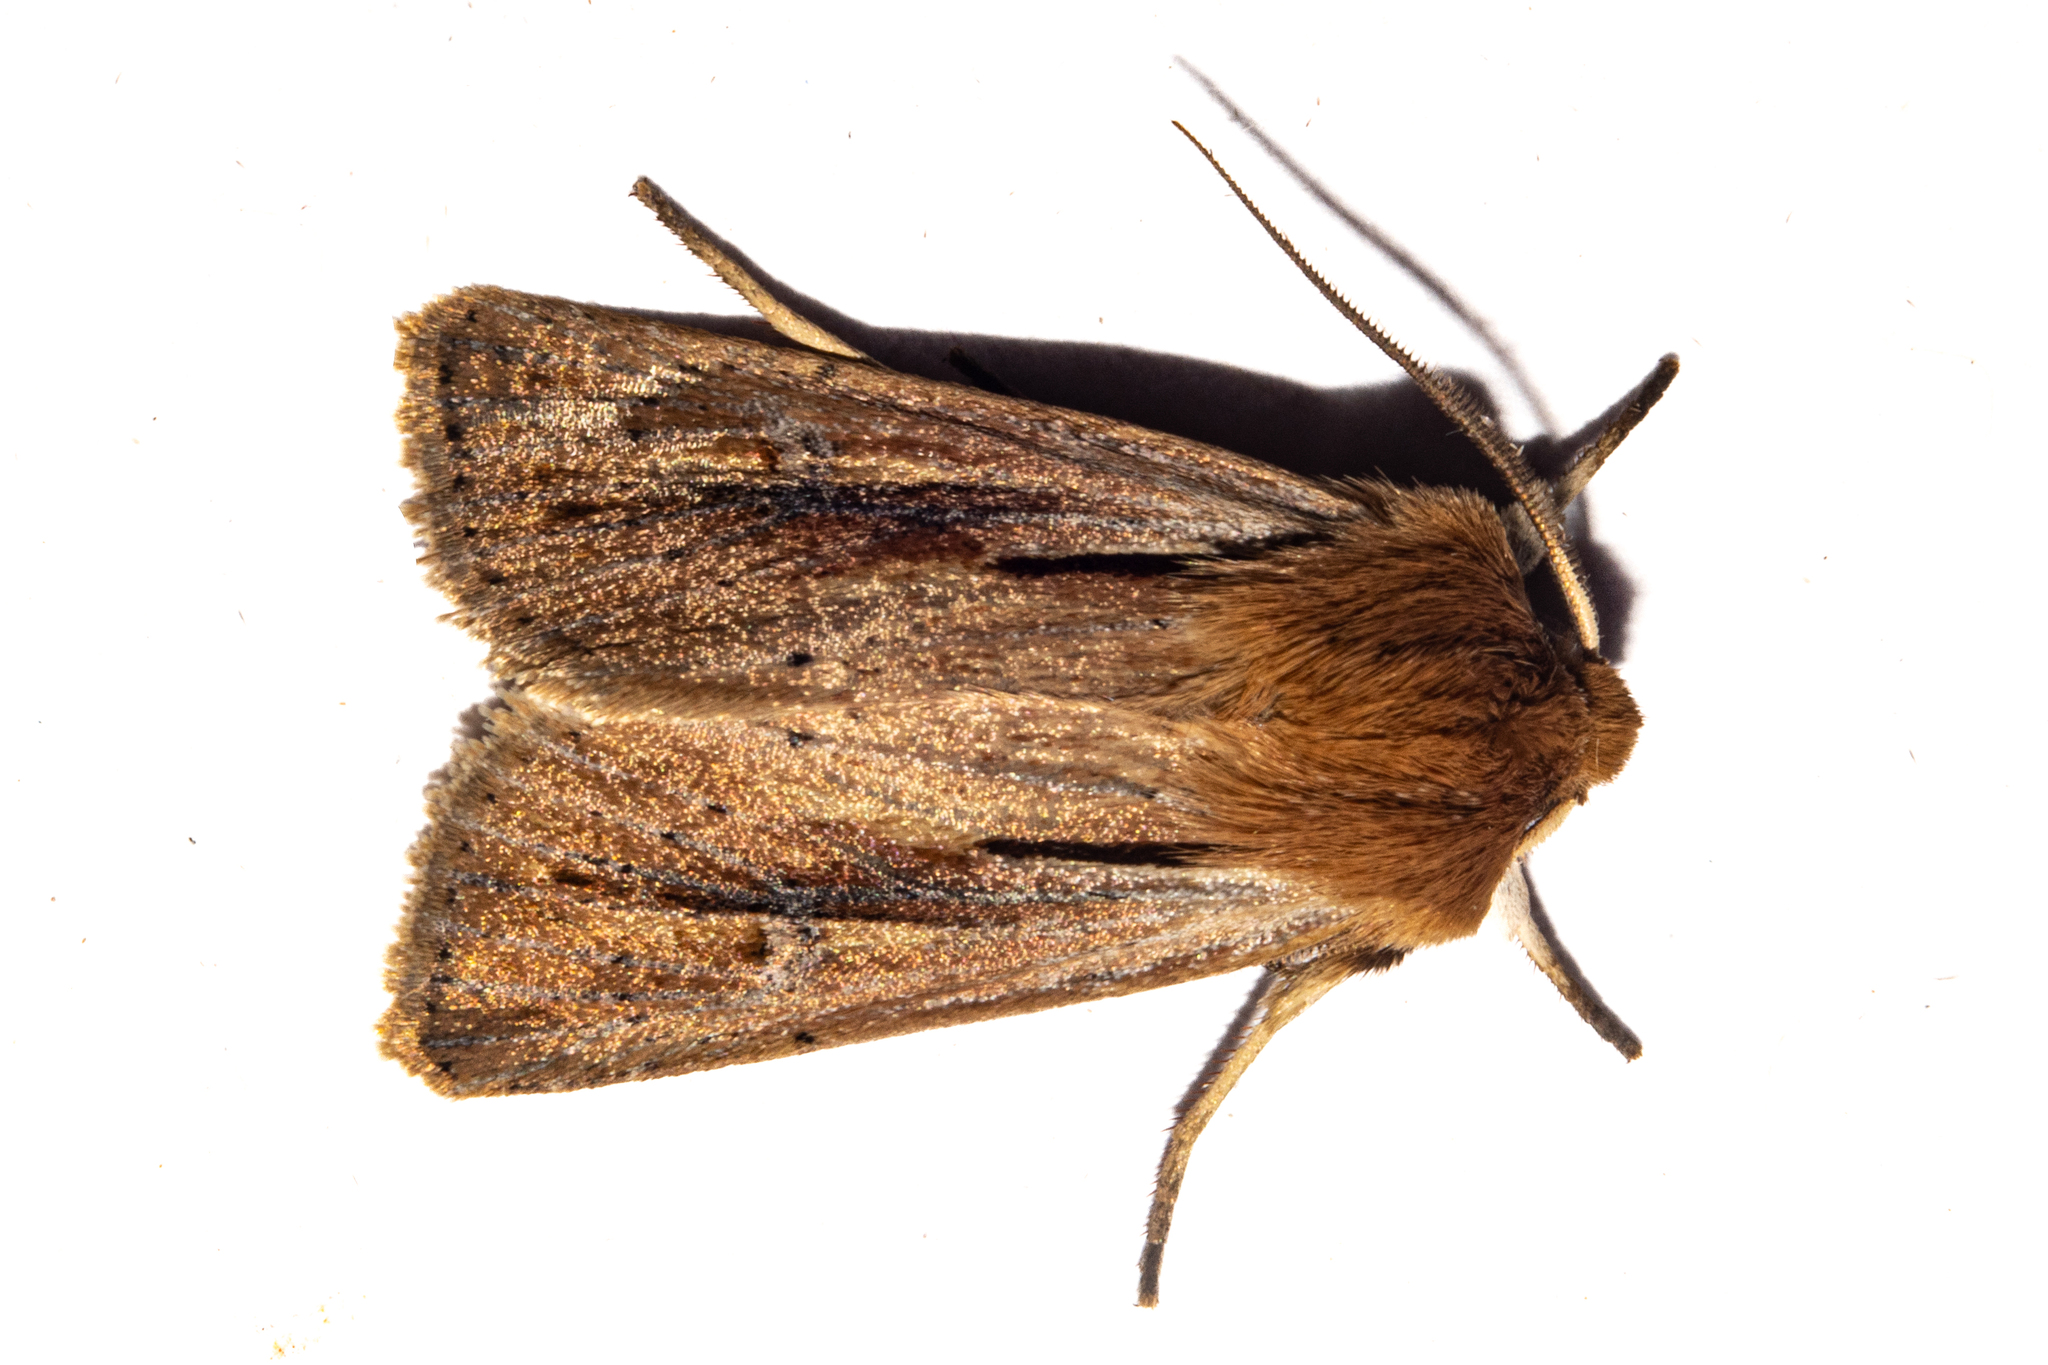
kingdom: Animalia
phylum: Arthropoda
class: Insecta
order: Lepidoptera
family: Noctuidae
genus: Ichneutica
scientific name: Ichneutica propria
